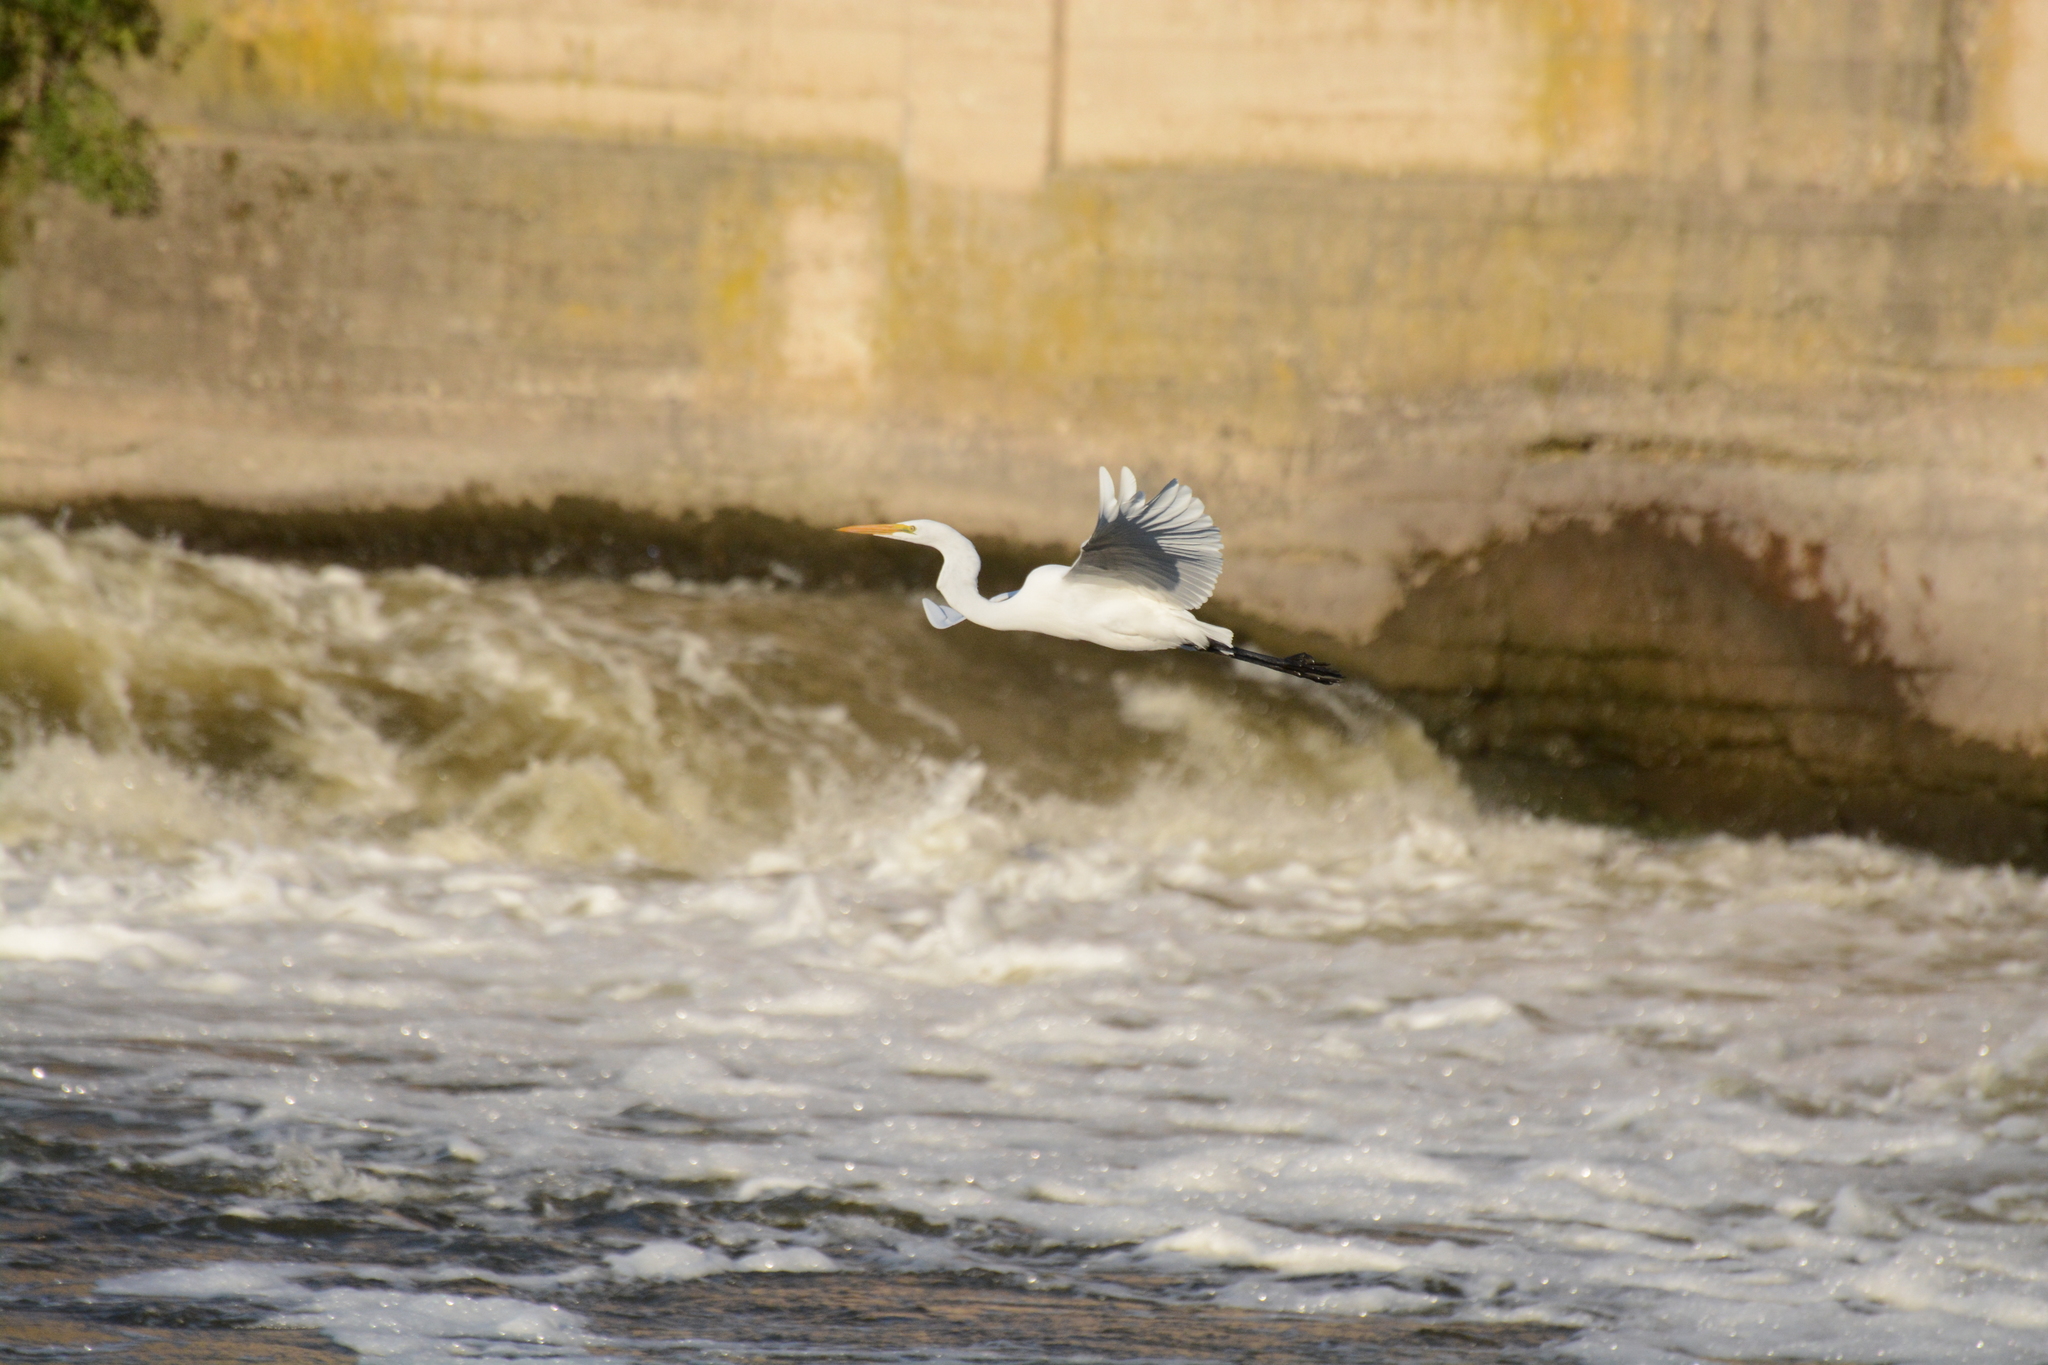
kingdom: Animalia
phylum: Chordata
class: Aves
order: Pelecaniformes
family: Ardeidae
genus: Ardea
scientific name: Ardea alba
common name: Great egret
